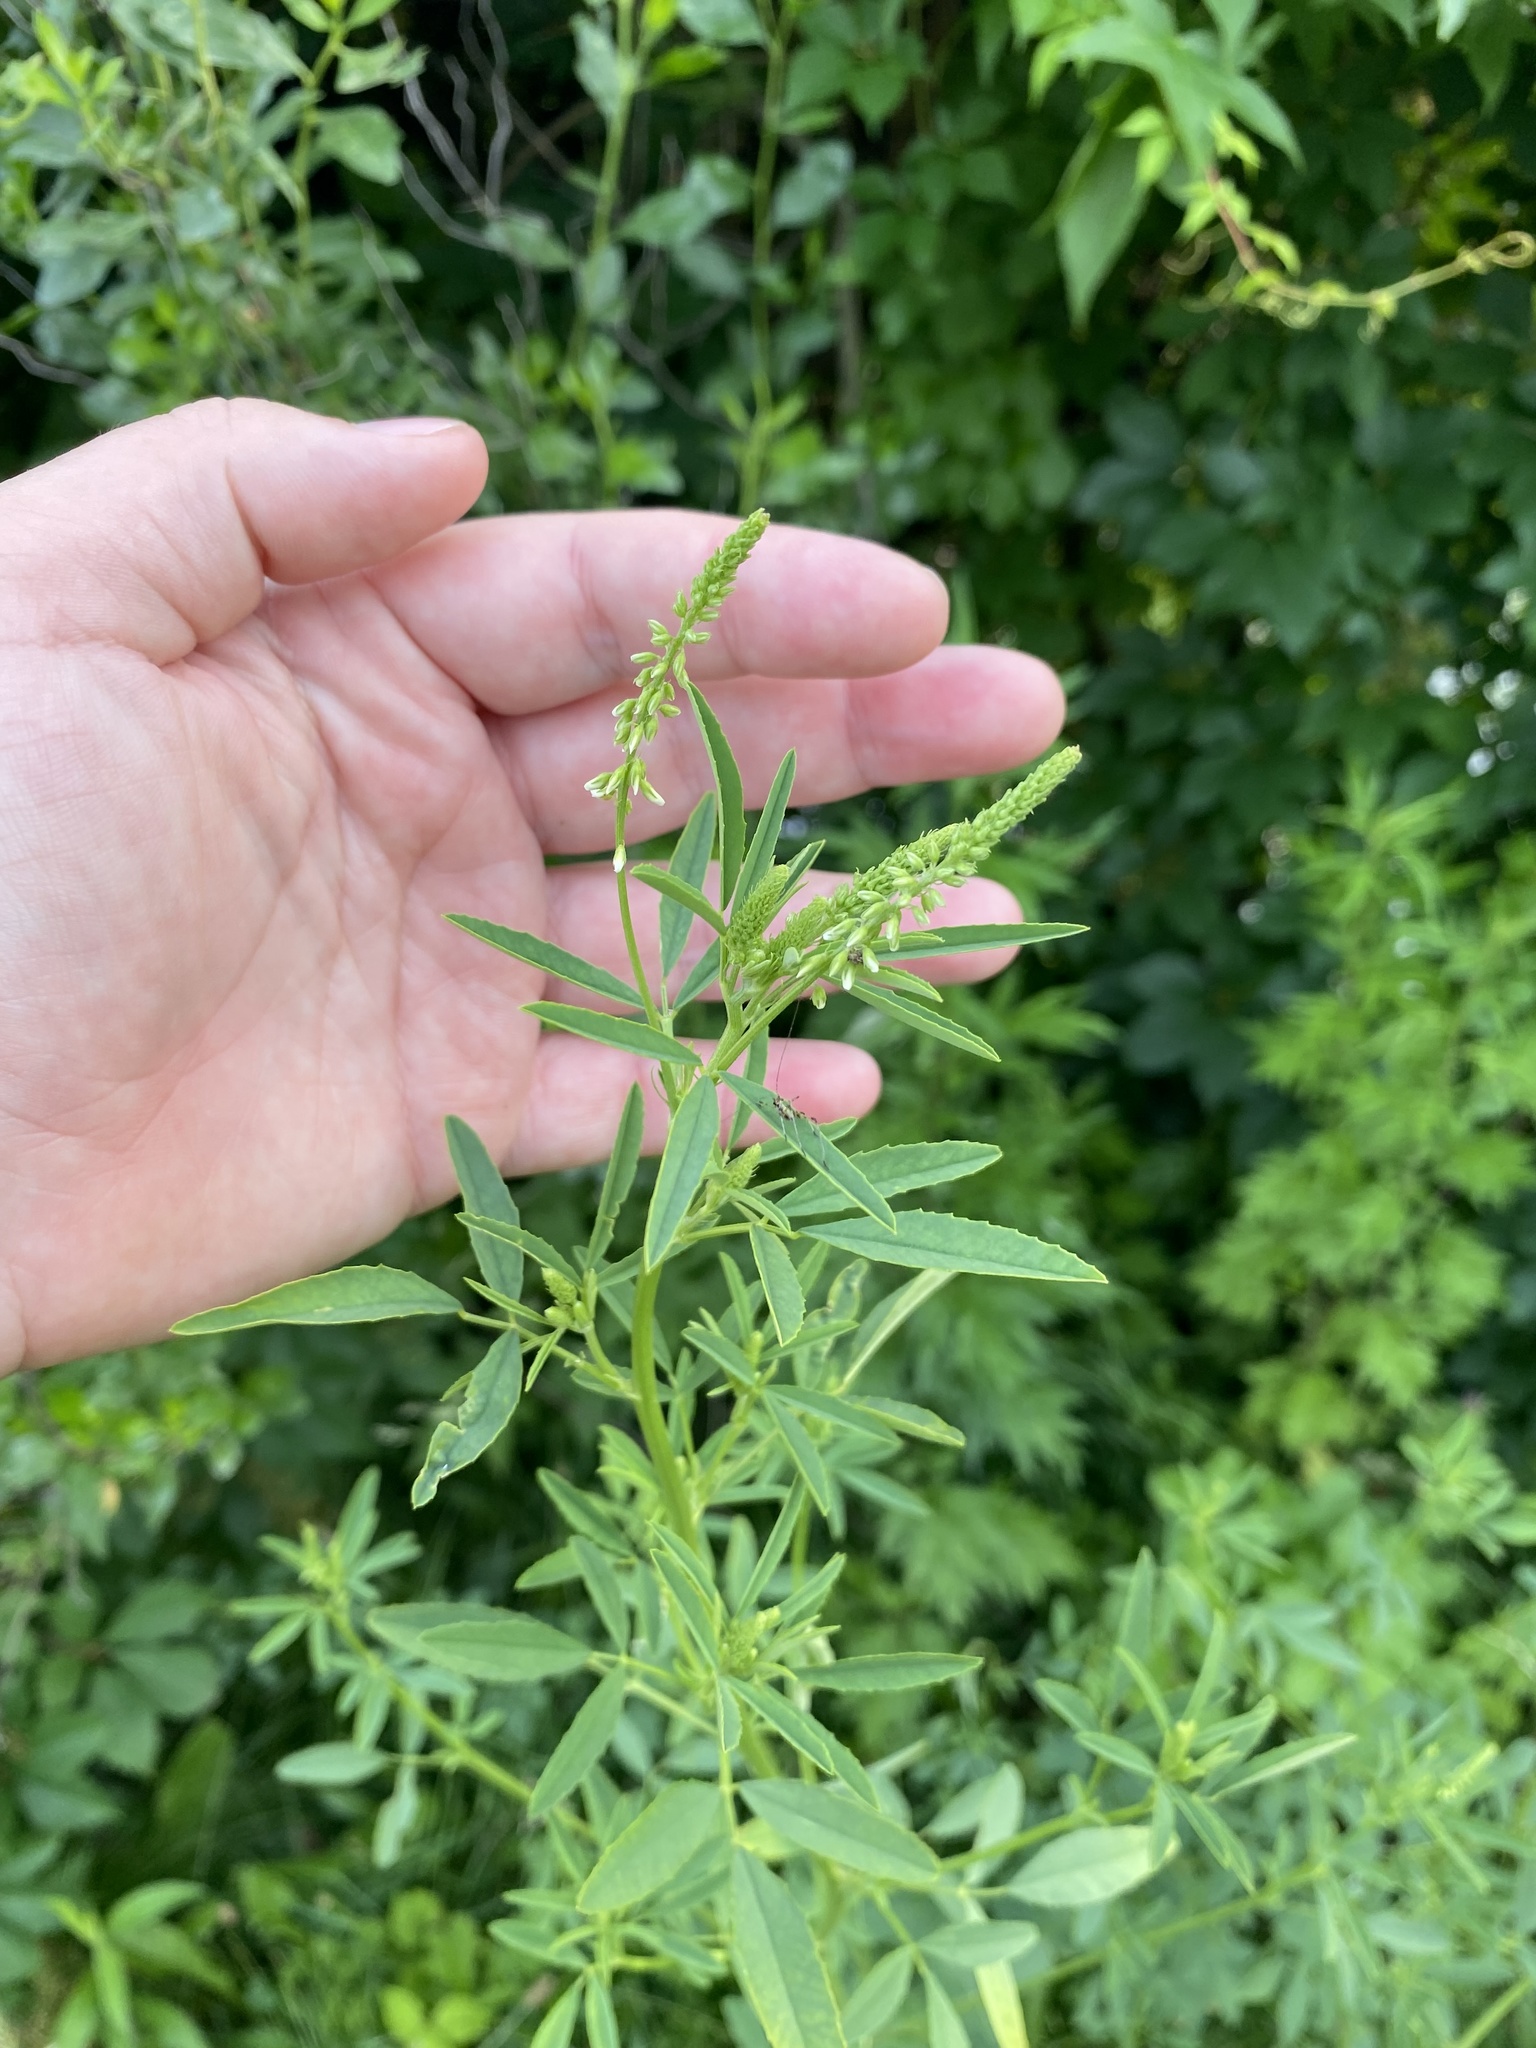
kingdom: Plantae
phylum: Tracheophyta
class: Magnoliopsida
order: Fabales
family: Fabaceae
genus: Melilotus
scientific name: Melilotus albus
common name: White melilot
